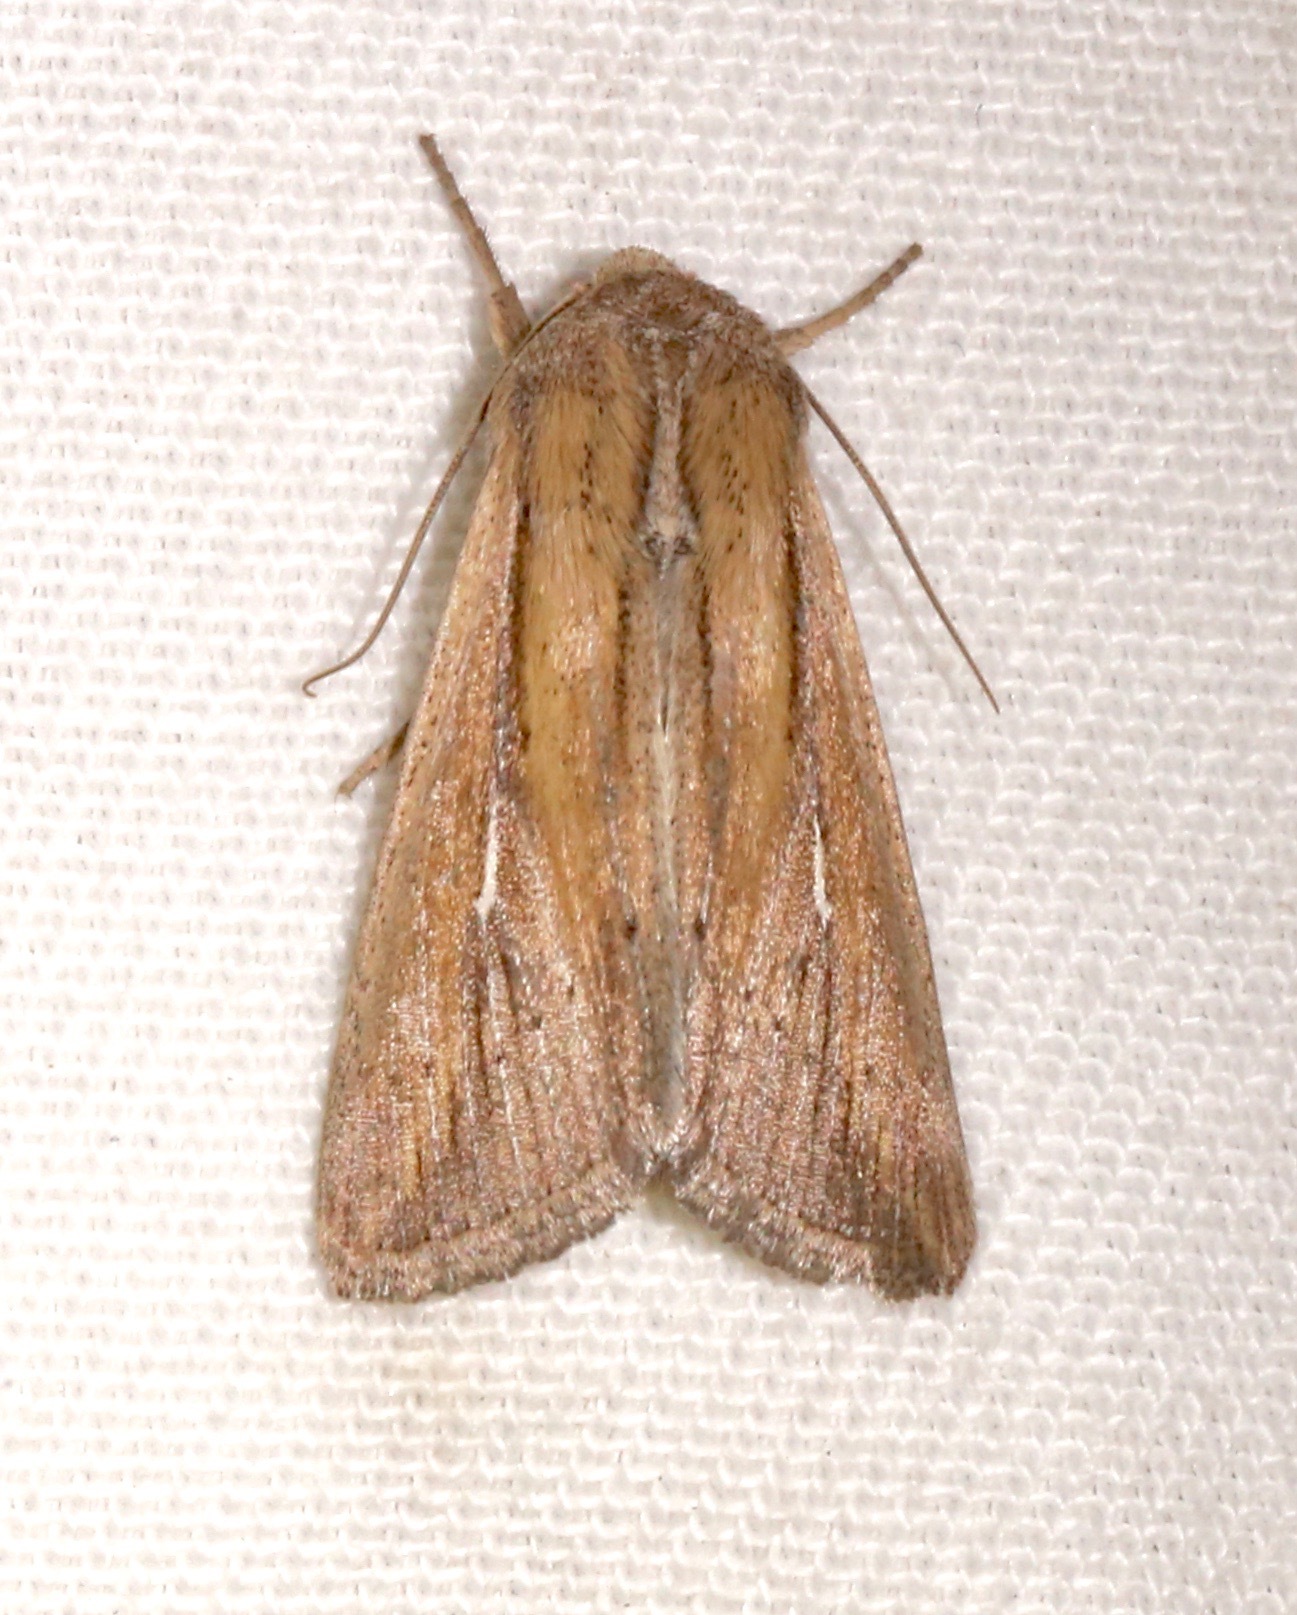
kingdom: Animalia
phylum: Arthropoda
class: Insecta
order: Lepidoptera
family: Noctuidae
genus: Leucania
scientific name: Leucania imperfecta
